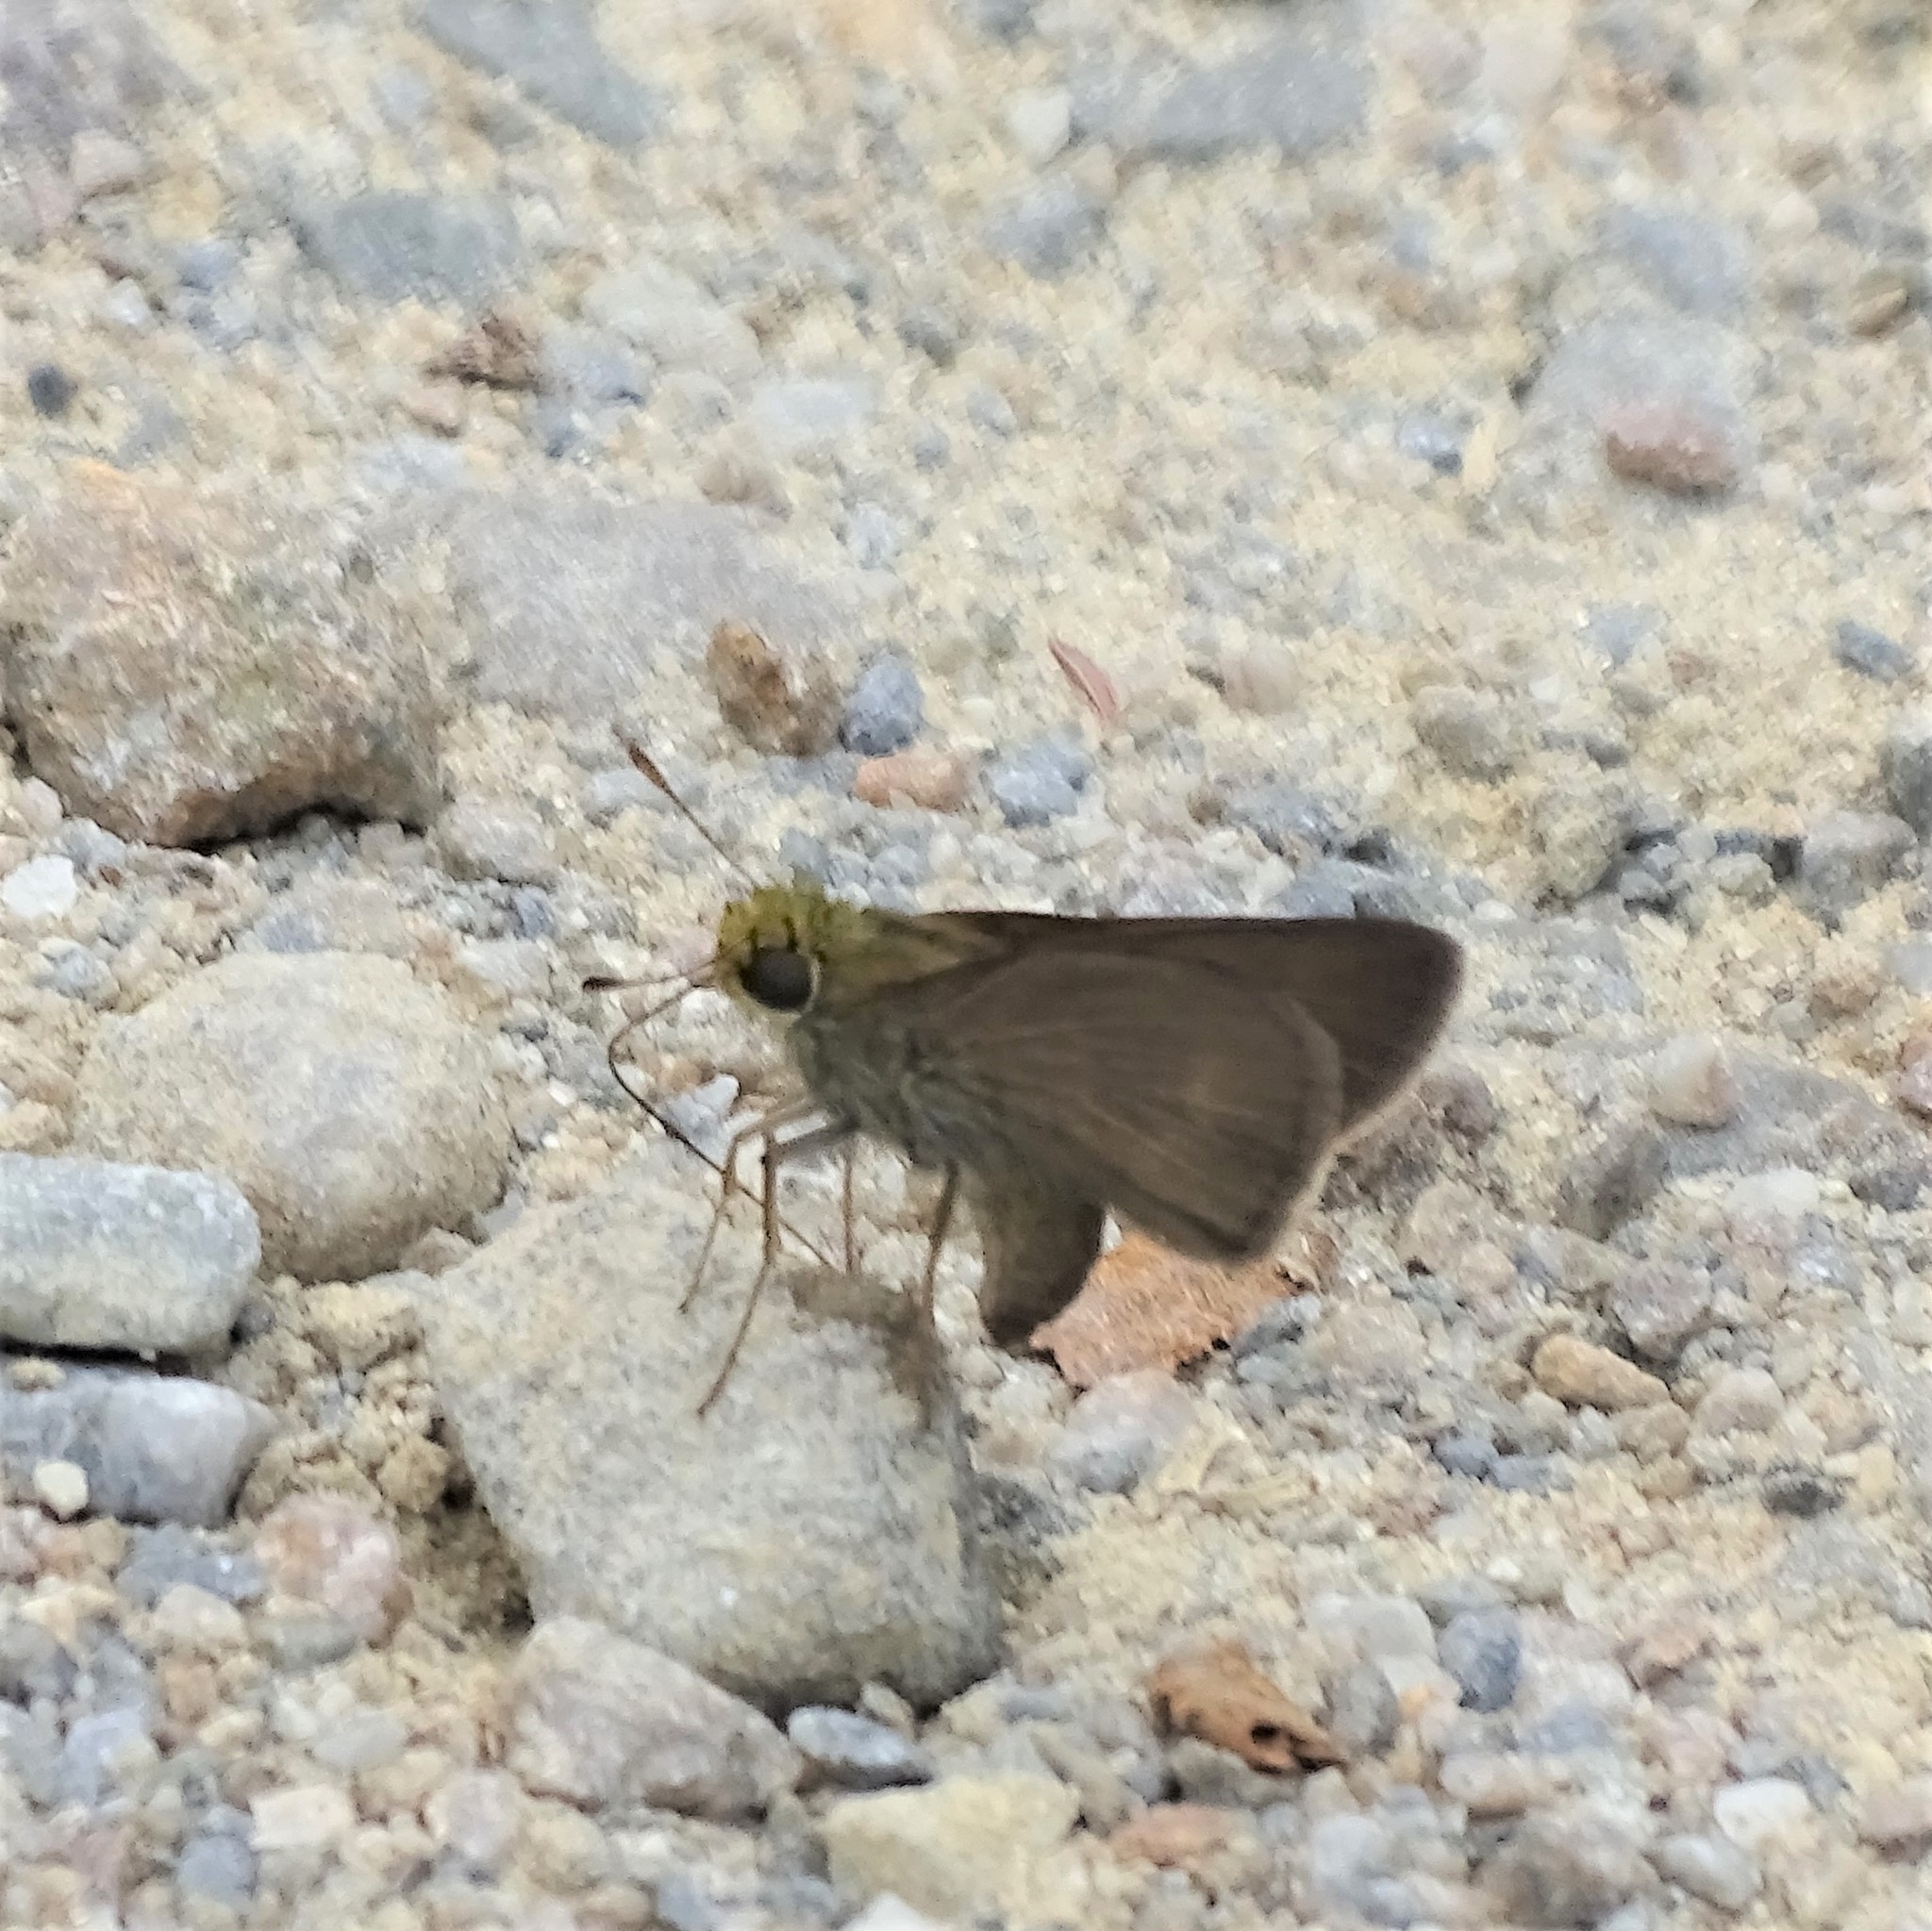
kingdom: Animalia
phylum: Arthropoda
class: Insecta
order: Lepidoptera
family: Hesperiidae
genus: Euphyes
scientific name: Euphyes vestris
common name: Dun skipper
